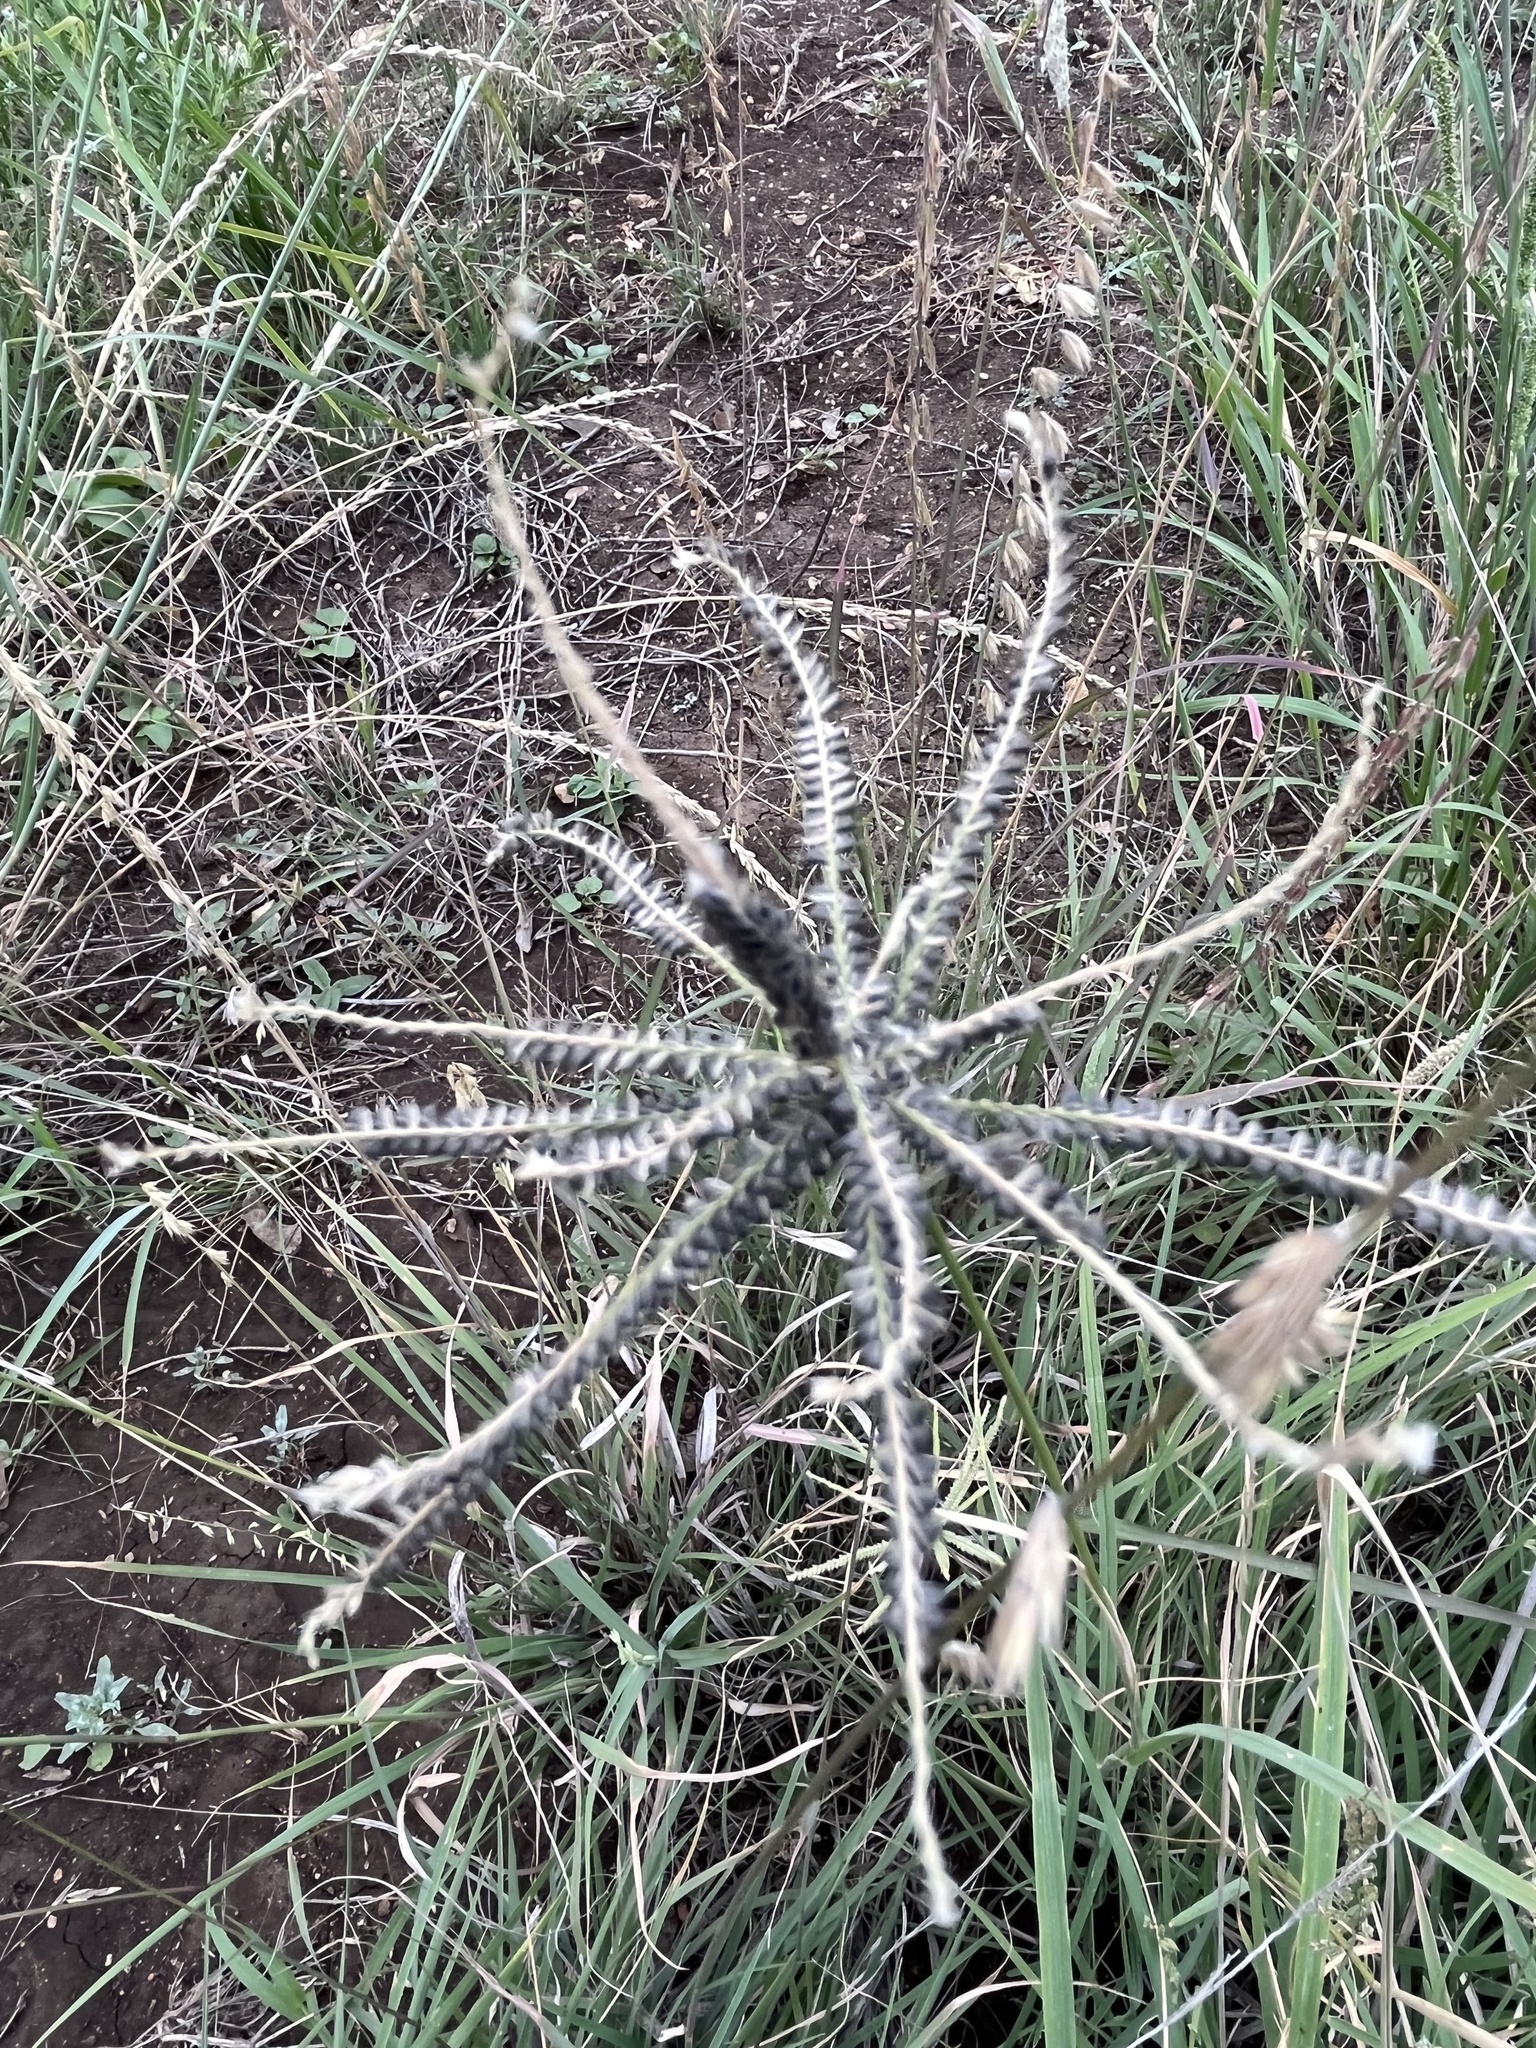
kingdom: Plantae
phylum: Tracheophyta
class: Liliopsida
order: Poales
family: Poaceae
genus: Chloris
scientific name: Chloris cucullata
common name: Hooded windmill grass
